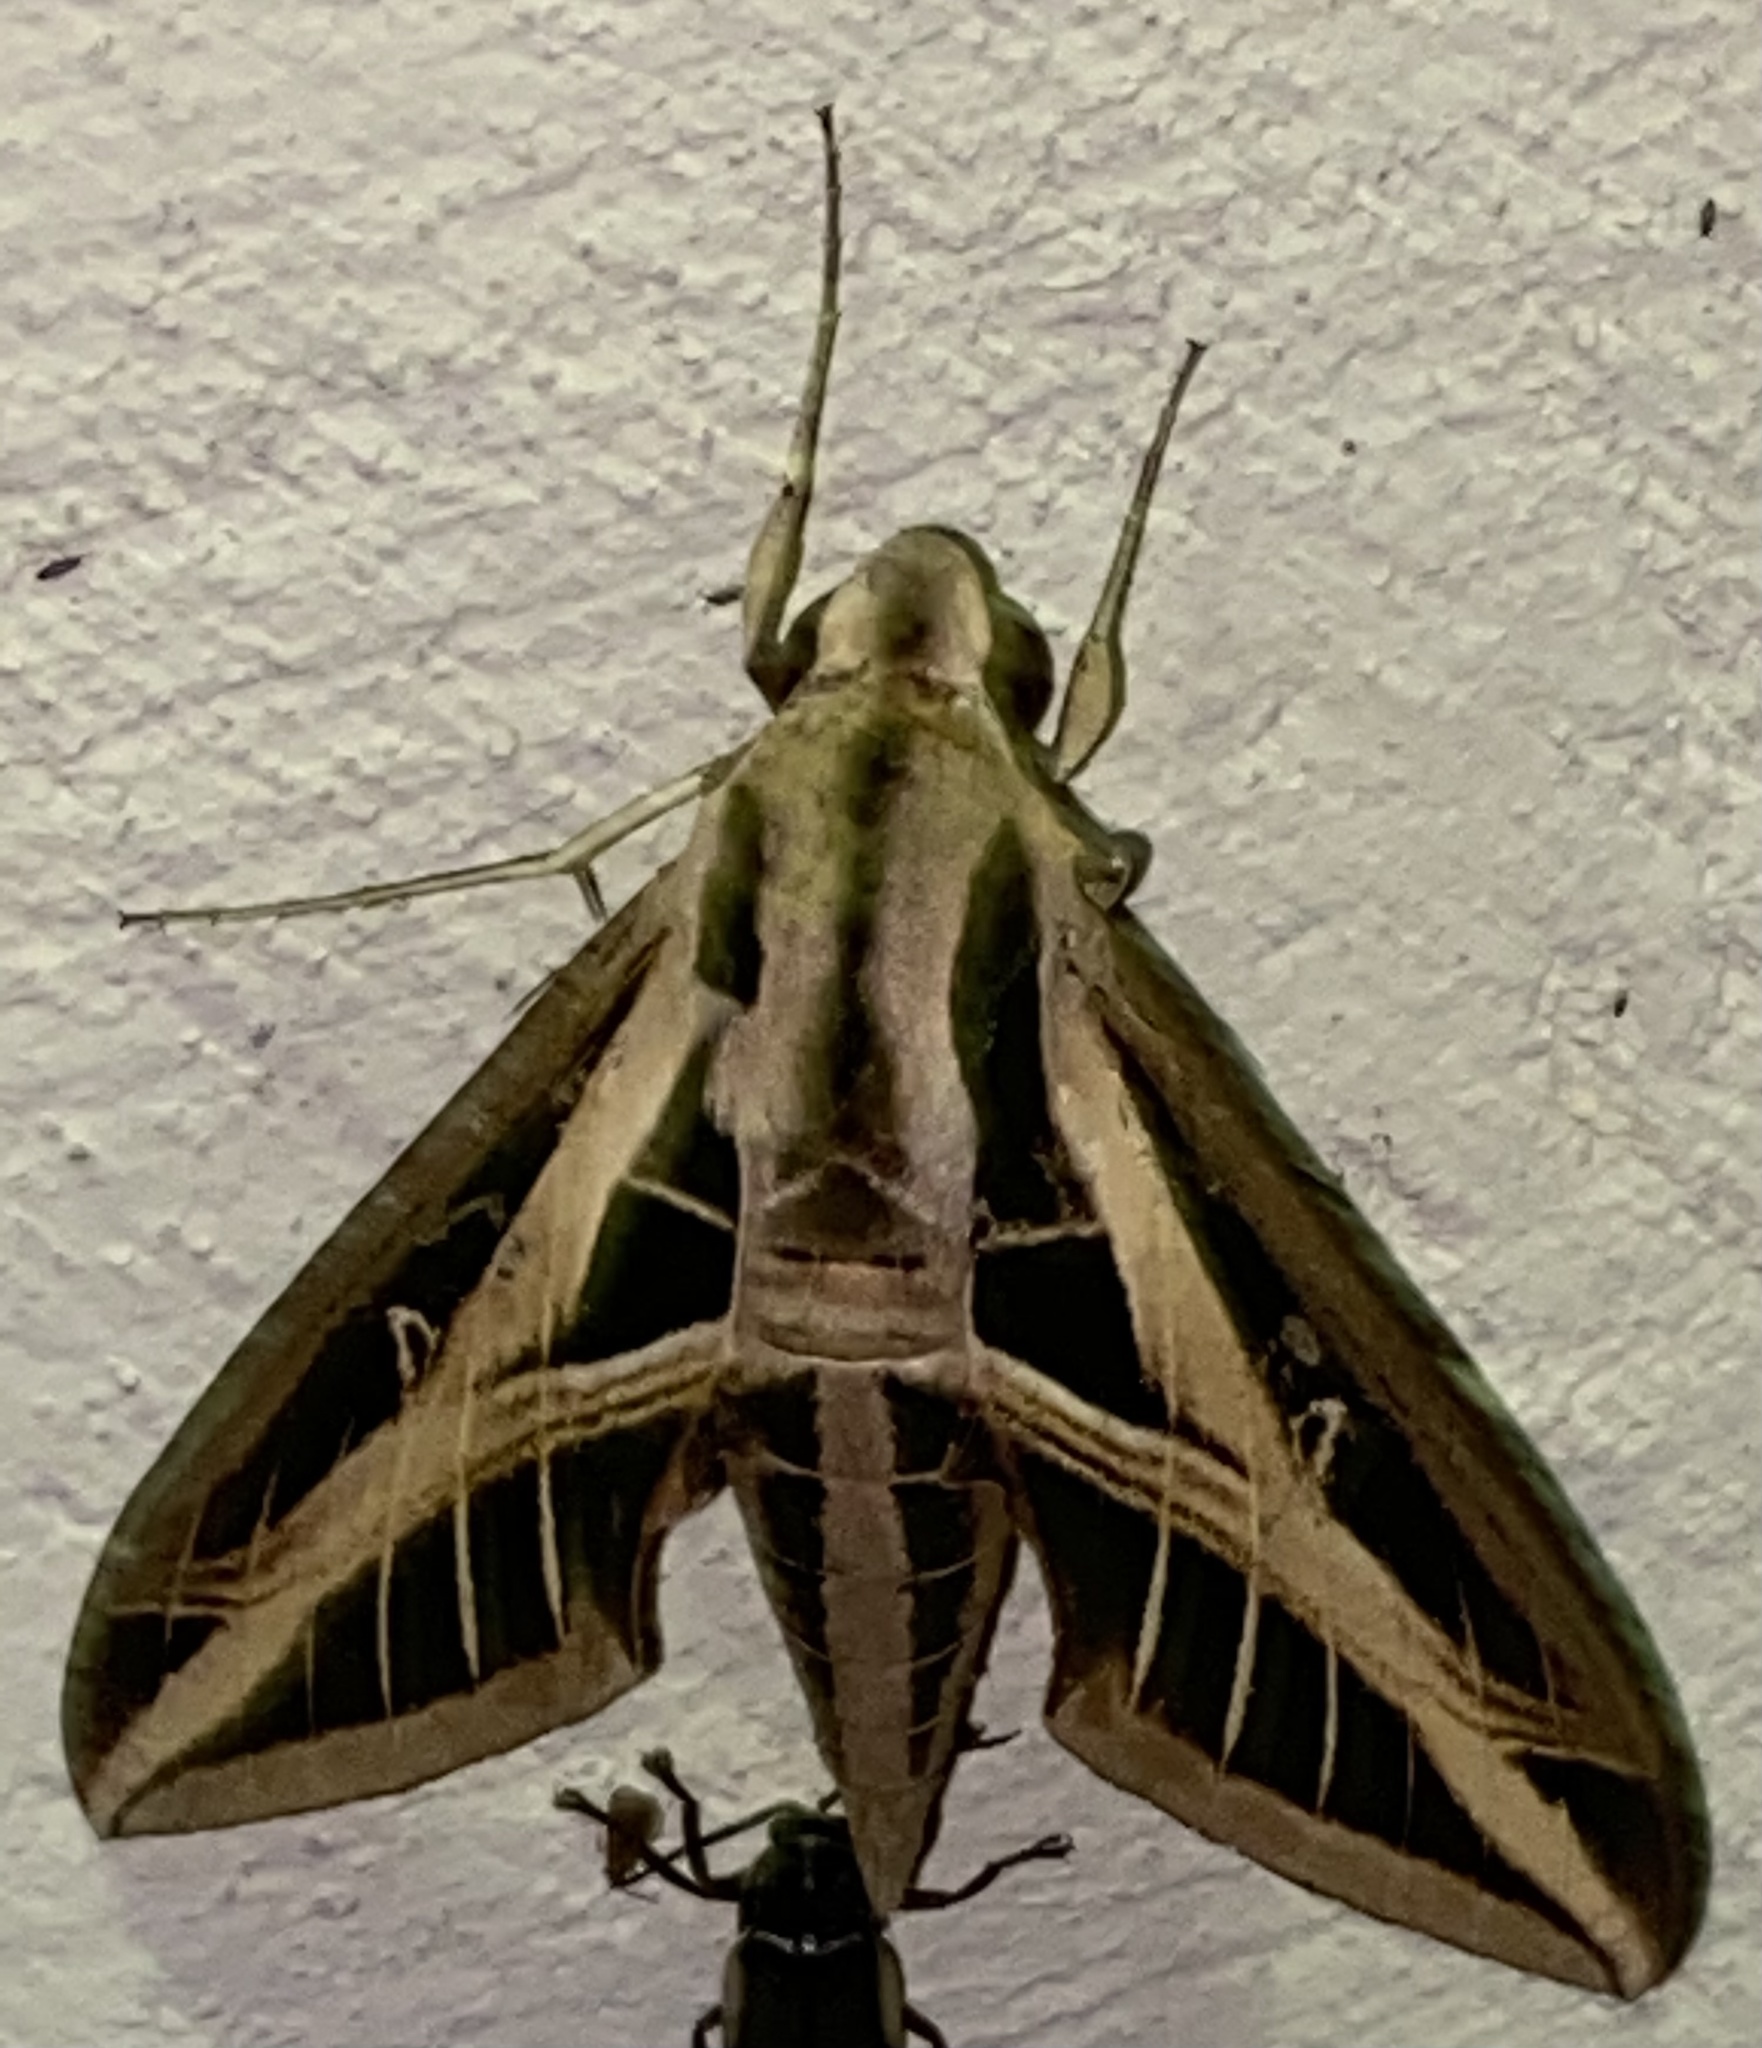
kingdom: Animalia
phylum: Arthropoda
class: Insecta
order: Lepidoptera
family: Sphingidae
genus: Eumorpha
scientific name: Eumorpha fasciatus
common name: Banded sphinx
